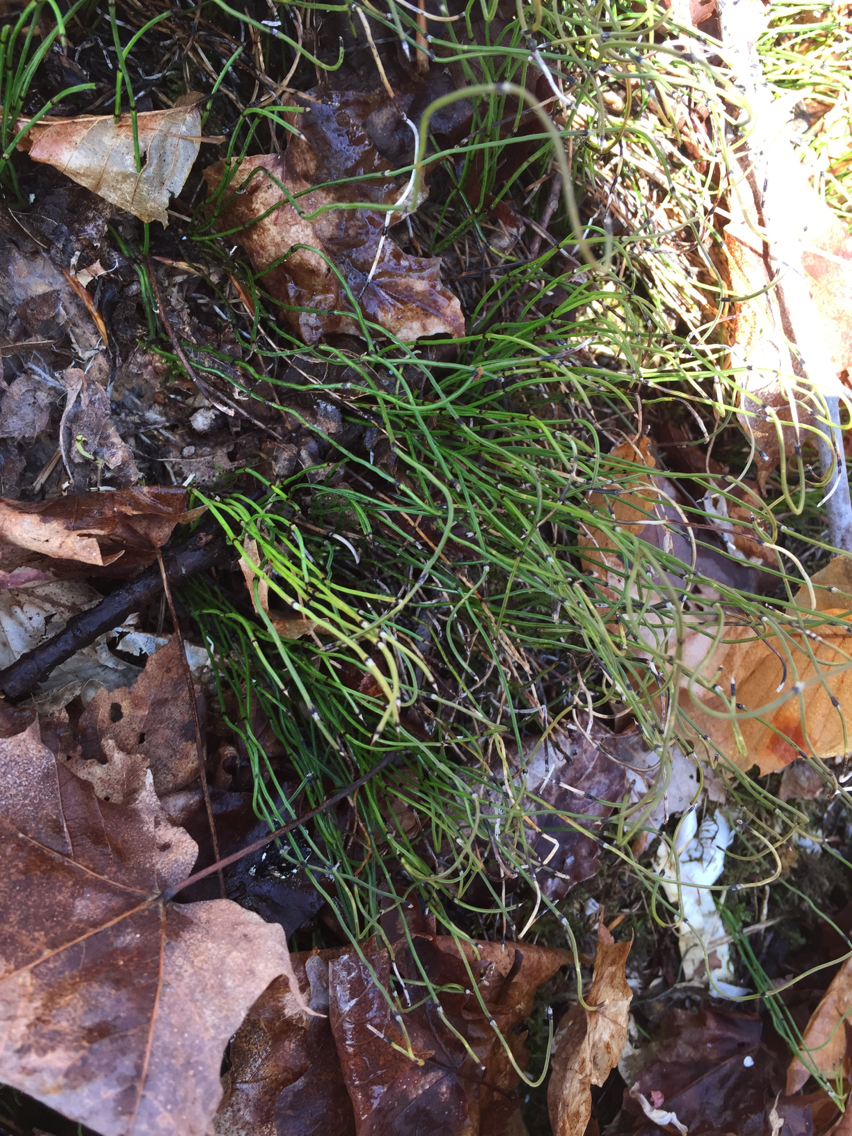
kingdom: Plantae
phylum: Tracheophyta
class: Polypodiopsida
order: Equisetales
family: Equisetaceae
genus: Equisetum
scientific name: Equisetum scirpoides
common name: Delicate horsetail
